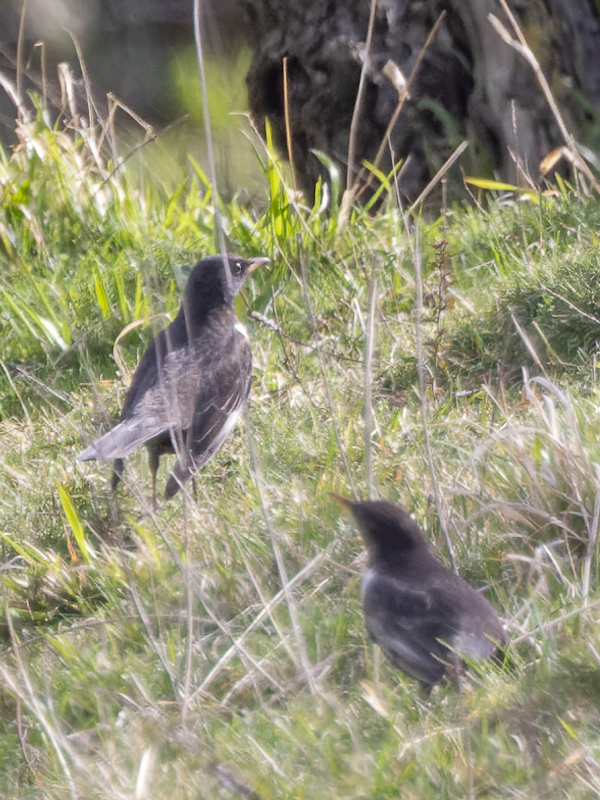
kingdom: Animalia
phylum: Chordata
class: Aves
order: Passeriformes
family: Turdidae
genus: Turdus
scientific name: Turdus torquatus
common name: Ring ouzel
